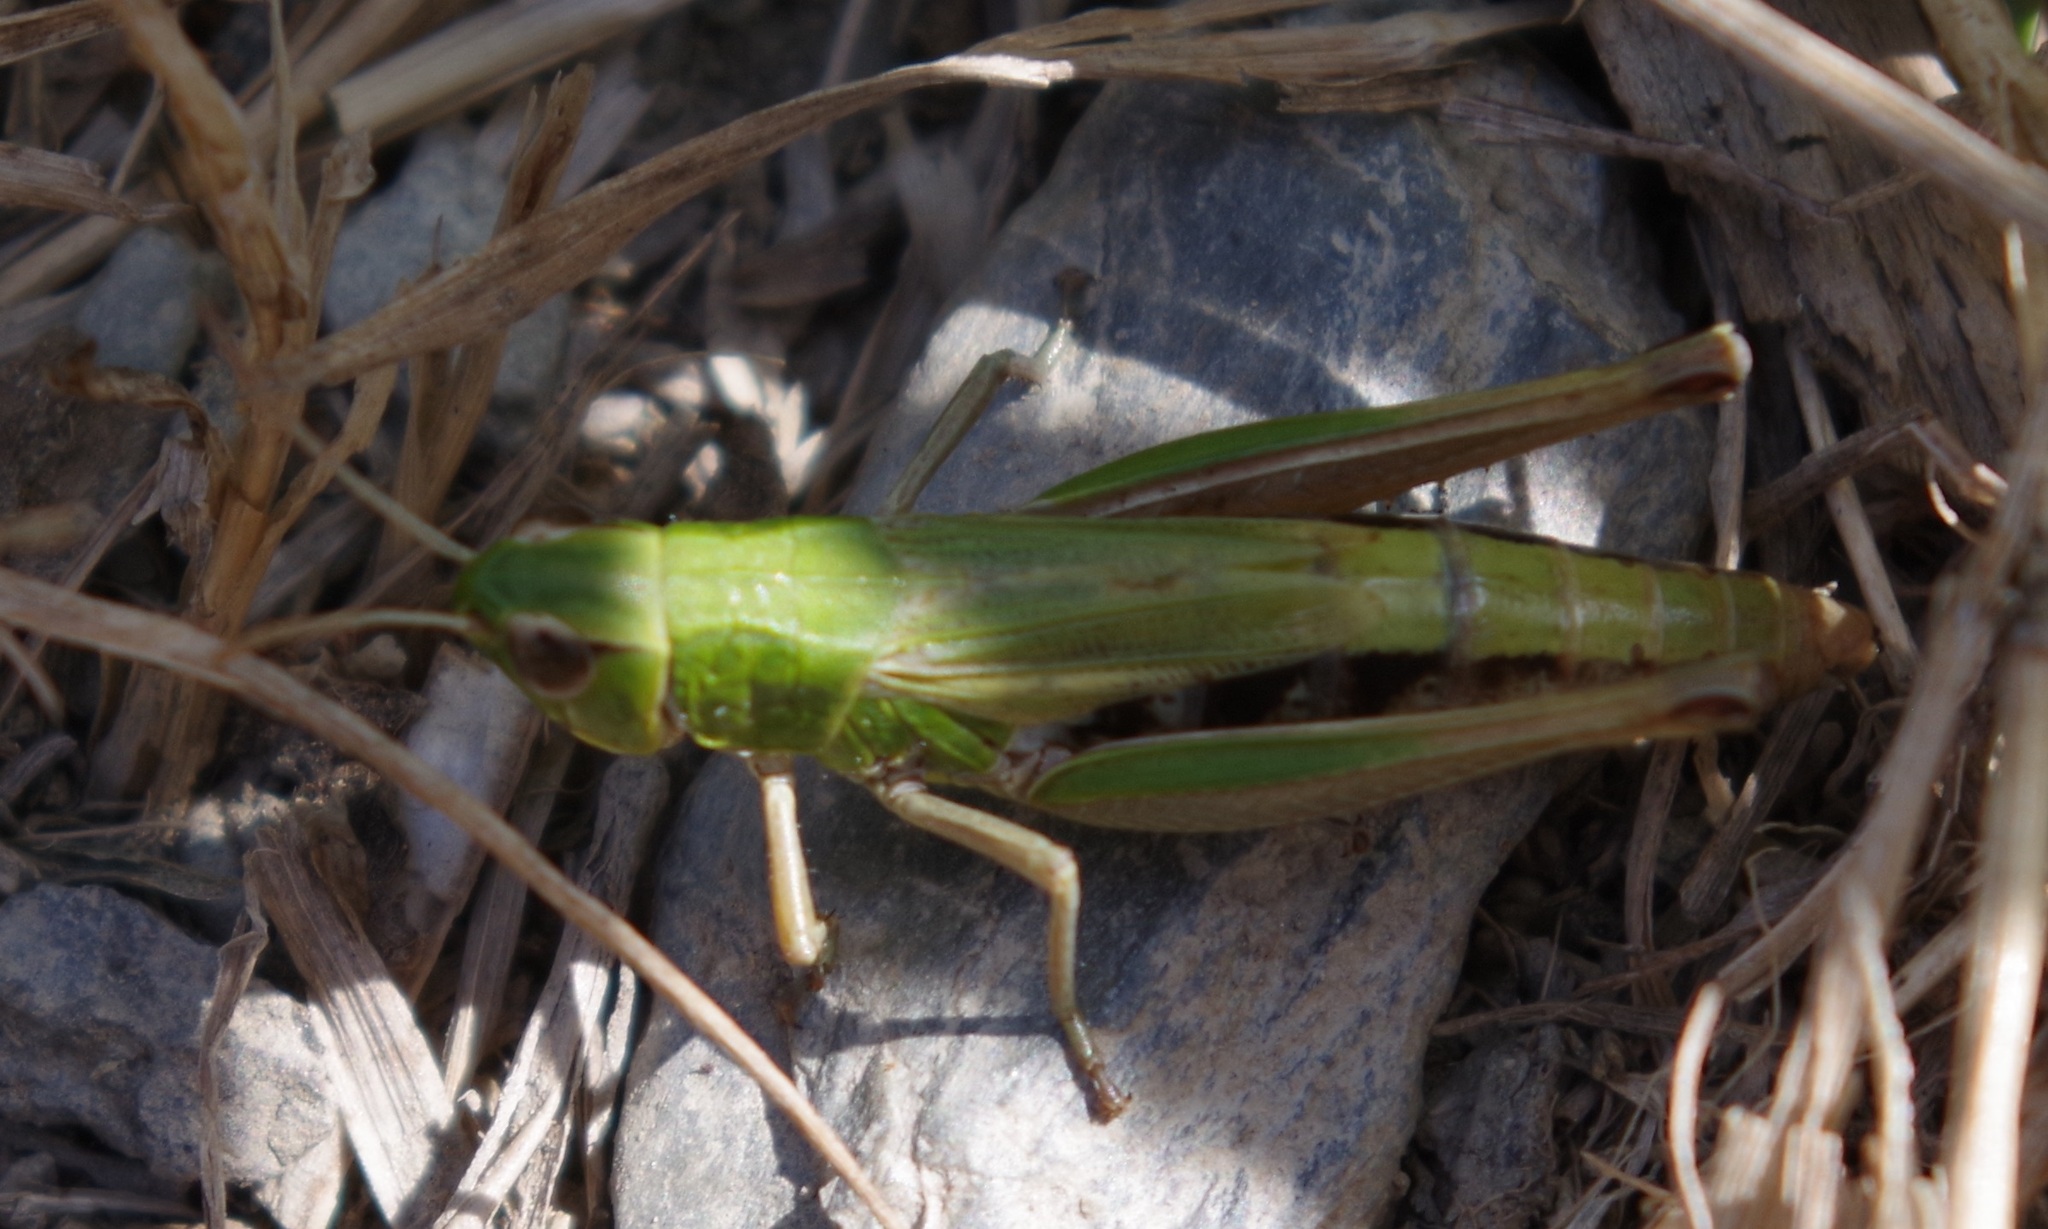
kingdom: Animalia
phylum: Arthropoda
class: Insecta
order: Orthoptera
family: Acrididae
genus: Pseudochorthippus
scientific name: Pseudochorthippus parallelus
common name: Meadow grasshopper
